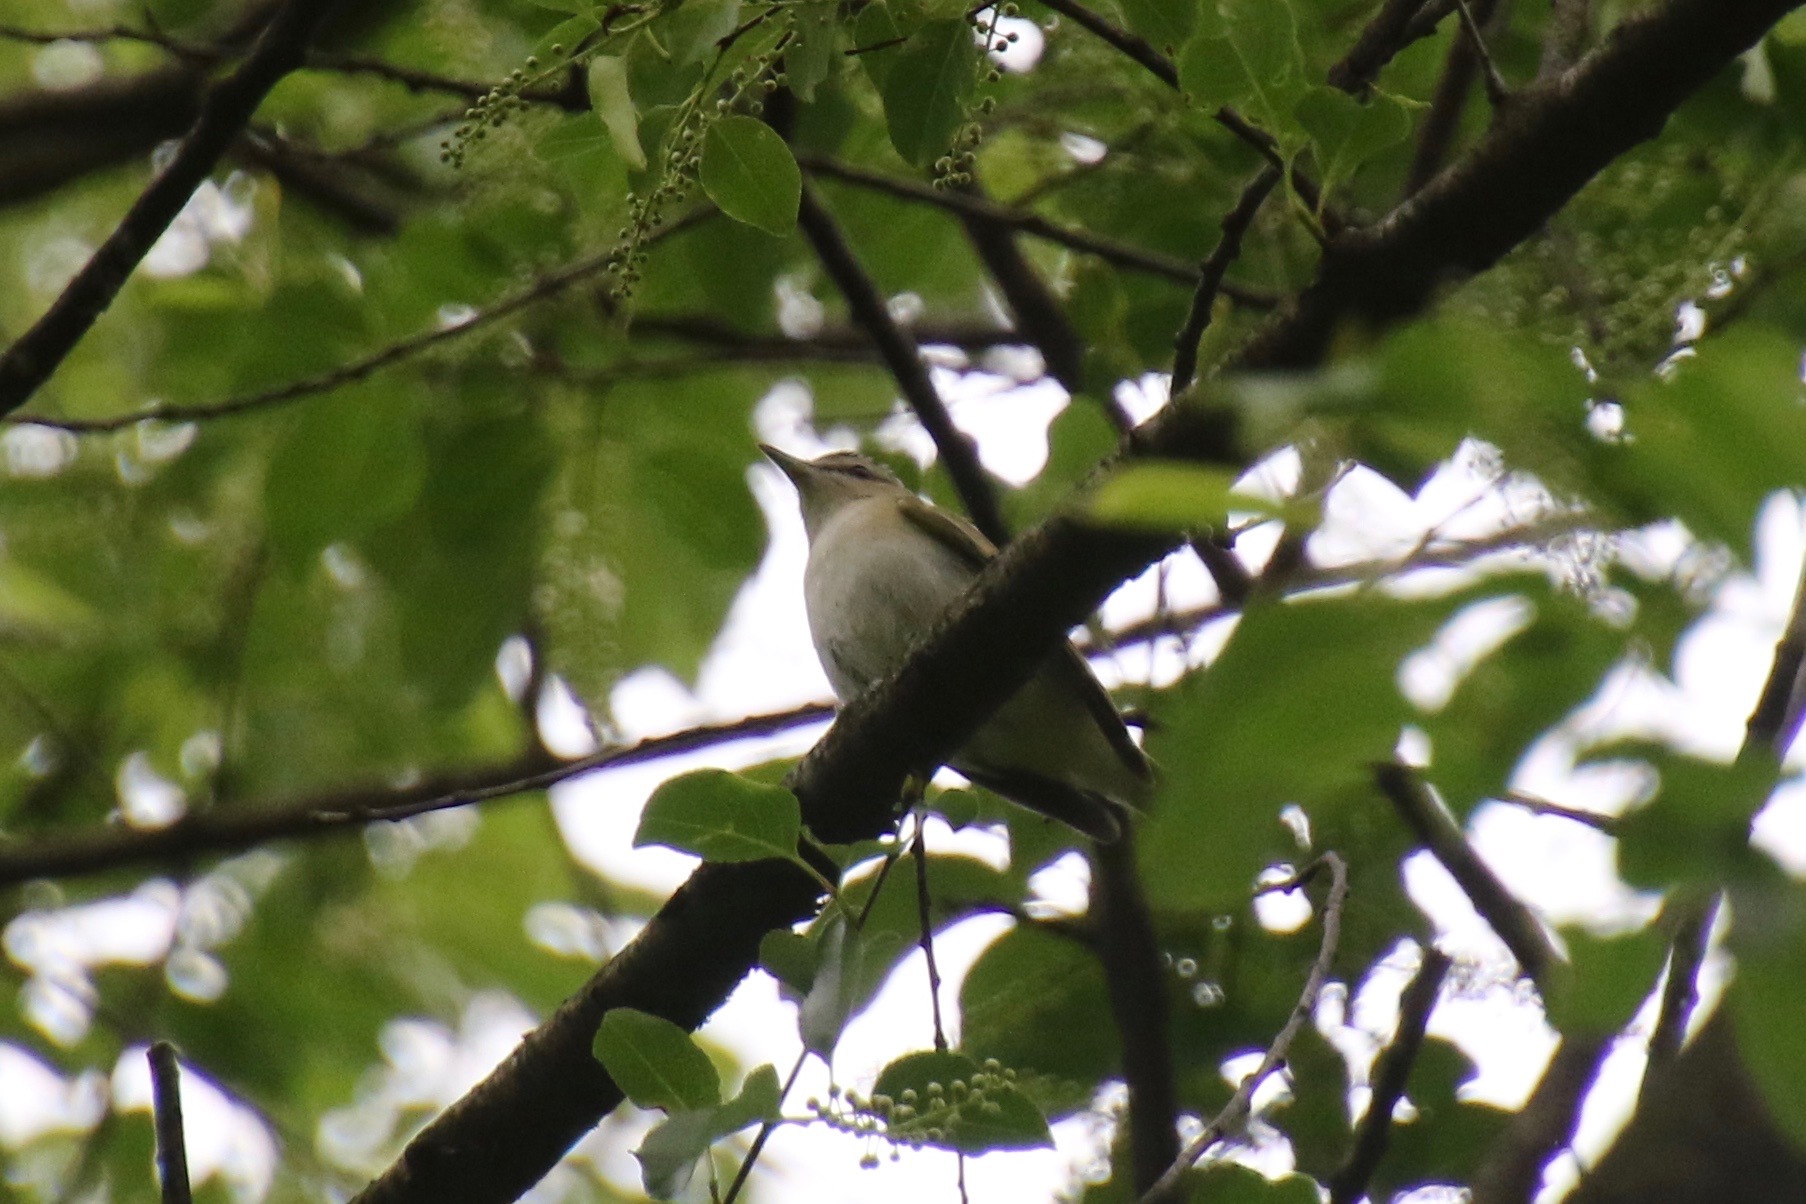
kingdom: Animalia
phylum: Chordata
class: Aves
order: Passeriformes
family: Vireonidae
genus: Vireo
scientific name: Vireo olivaceus
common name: Red-eyed vireo
